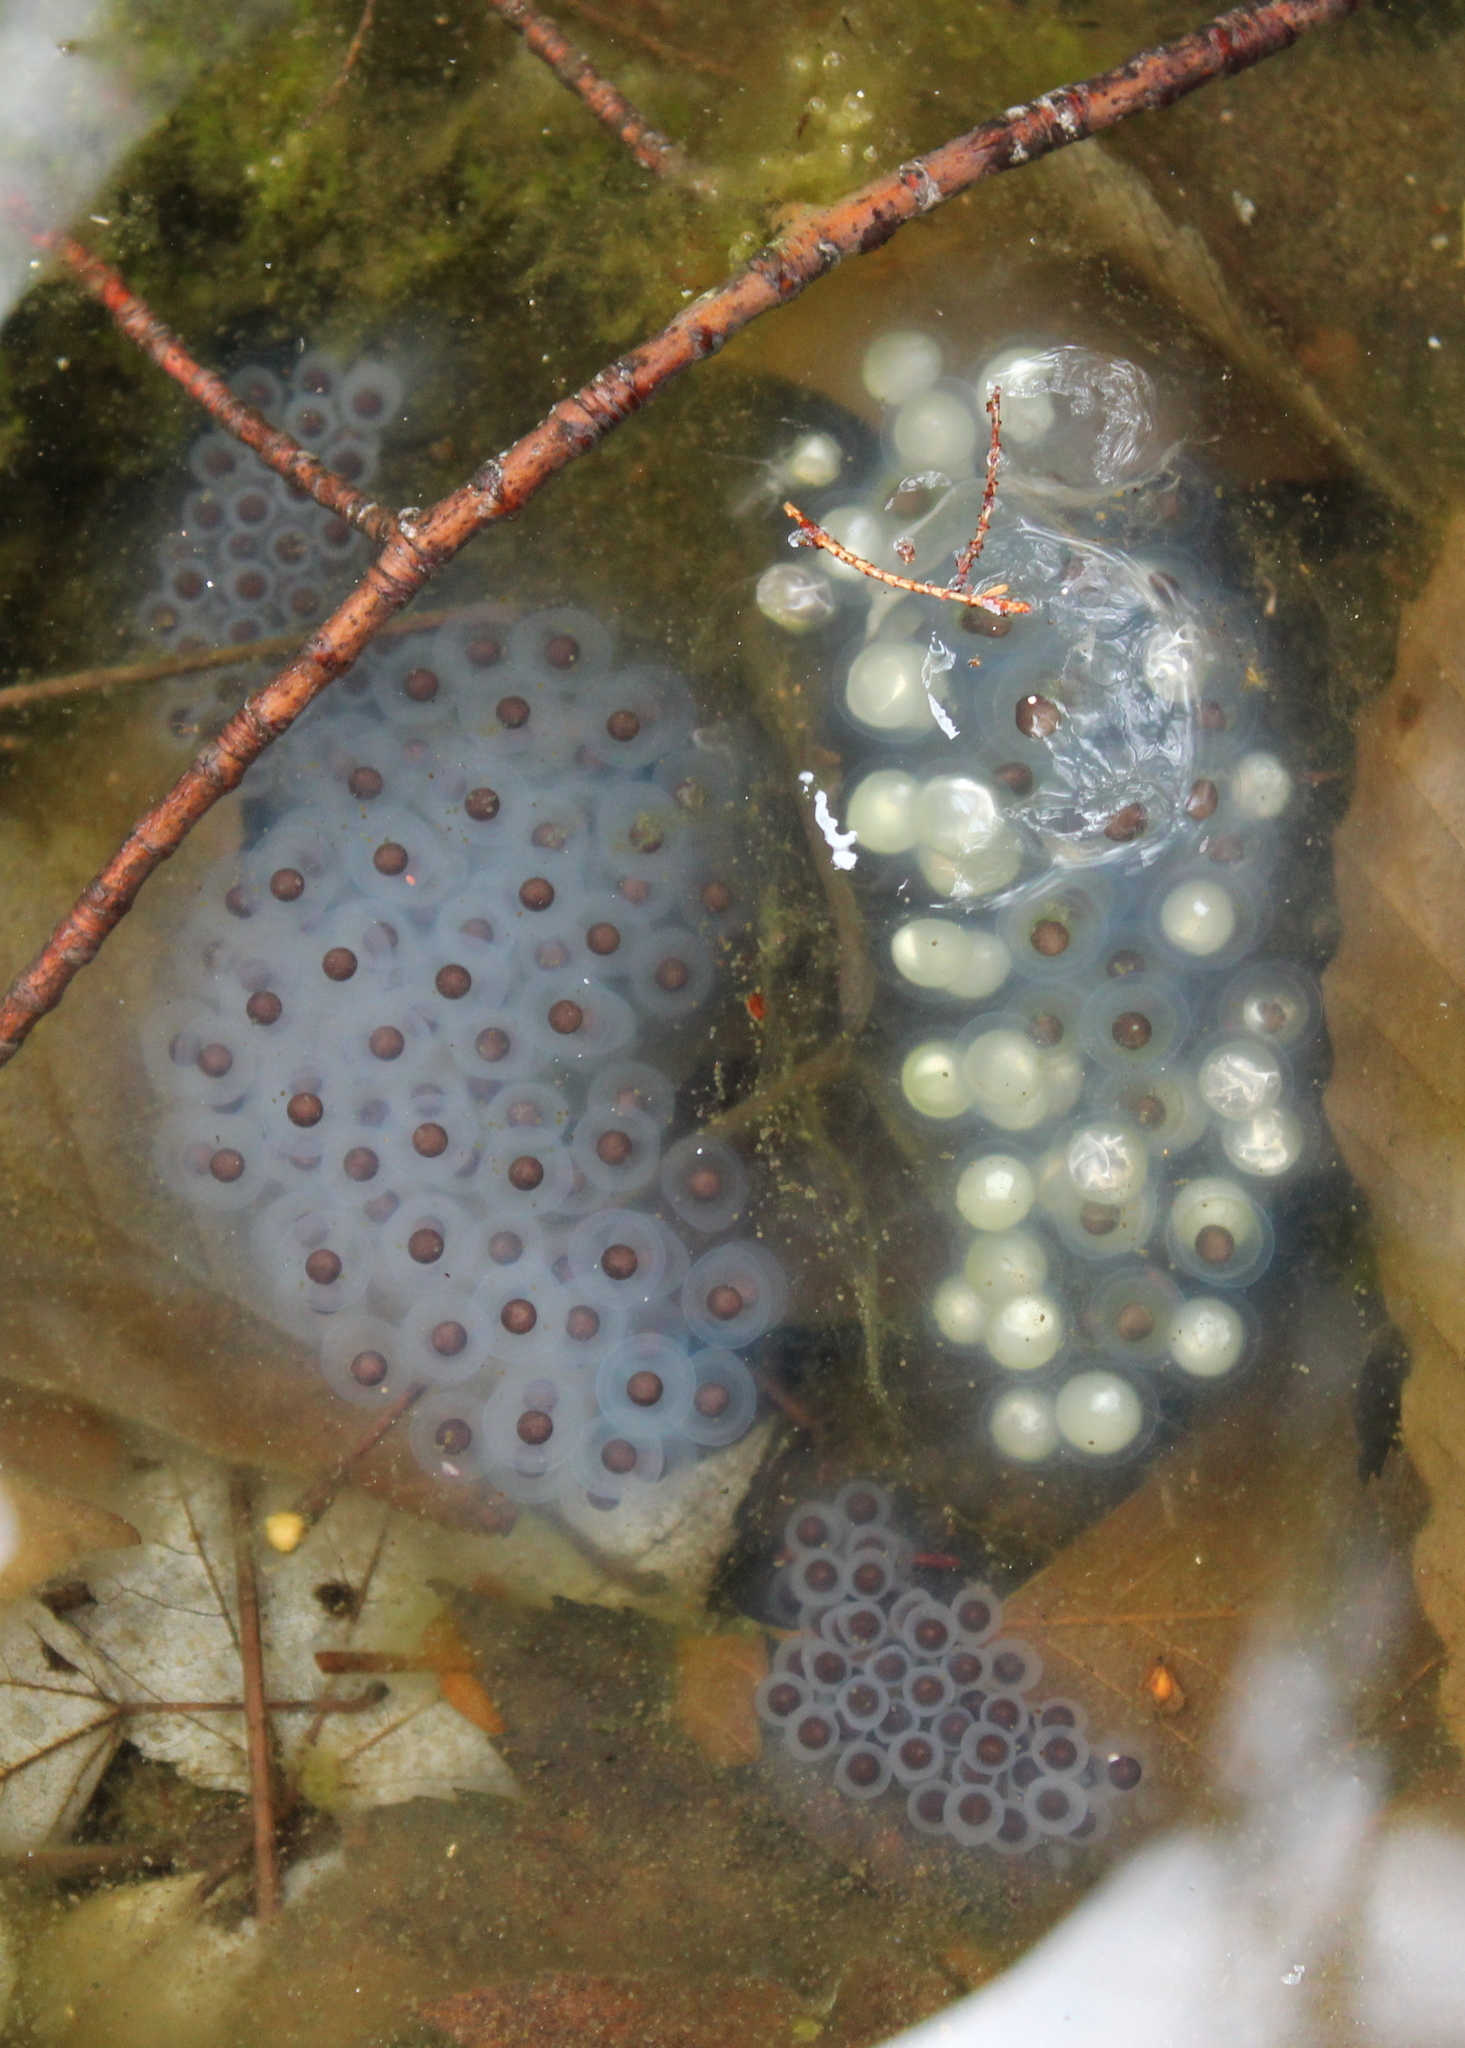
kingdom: Animalia
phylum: Chordata
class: Amphibia
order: Caudata
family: Ambystomatidae
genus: Ambystoma
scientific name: Ambystoma maculatum
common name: Spotted salamander
